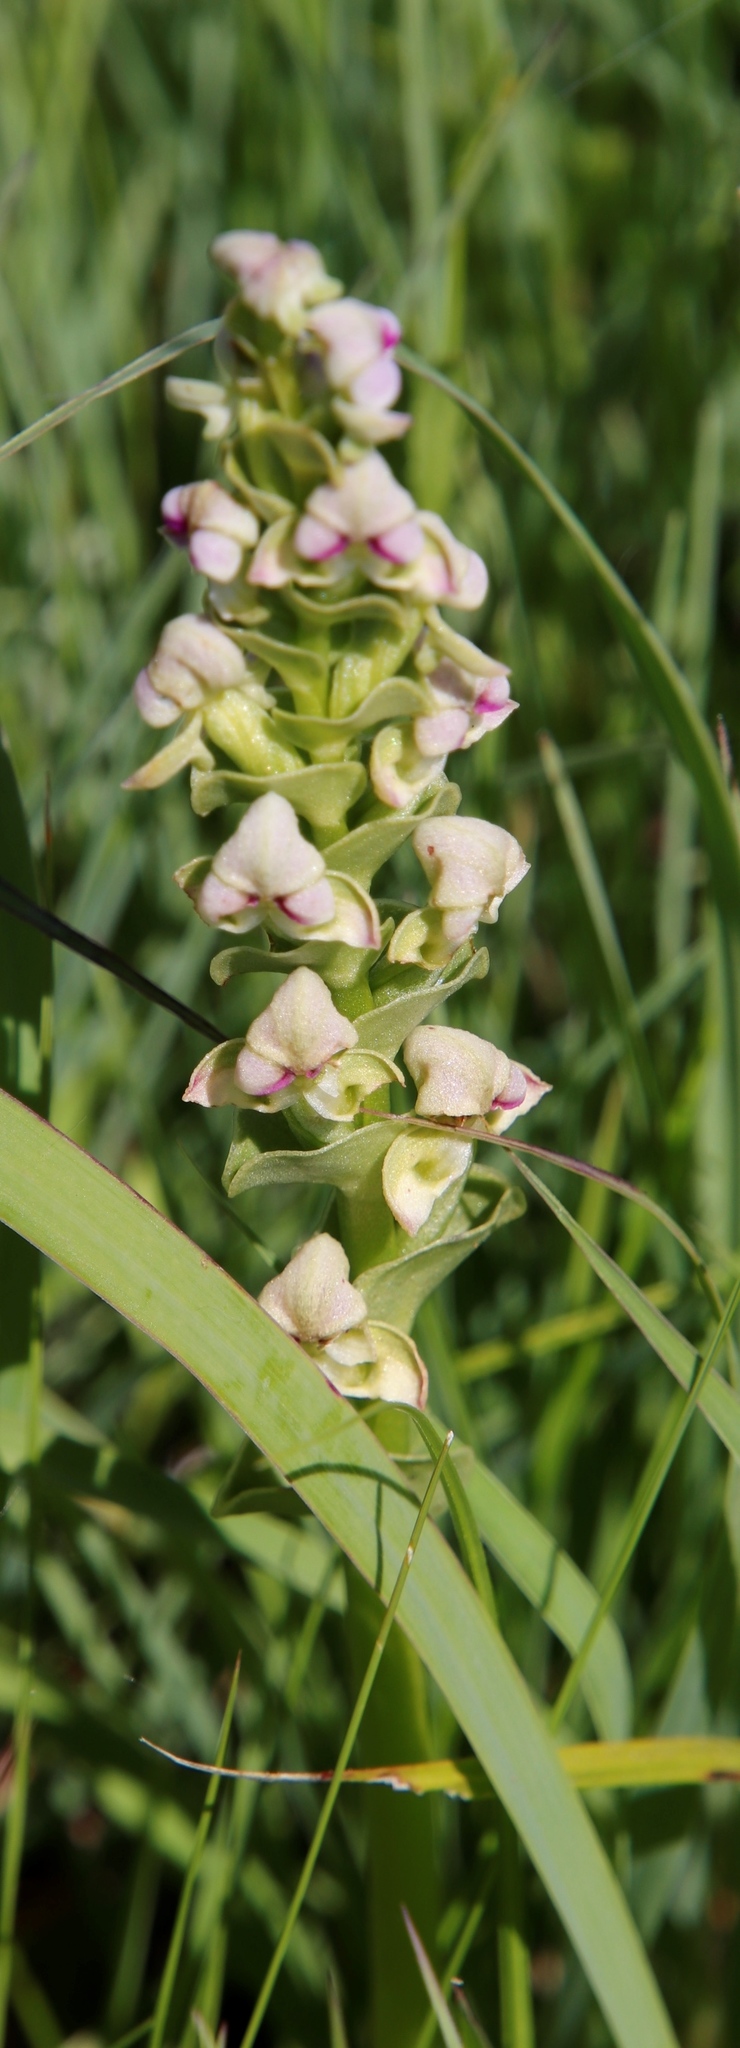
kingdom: Plantae
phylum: Tracheophyta
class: Liliopsida
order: Asparagales
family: Orchidaceae
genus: Disperis
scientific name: Disperis cardiophora
